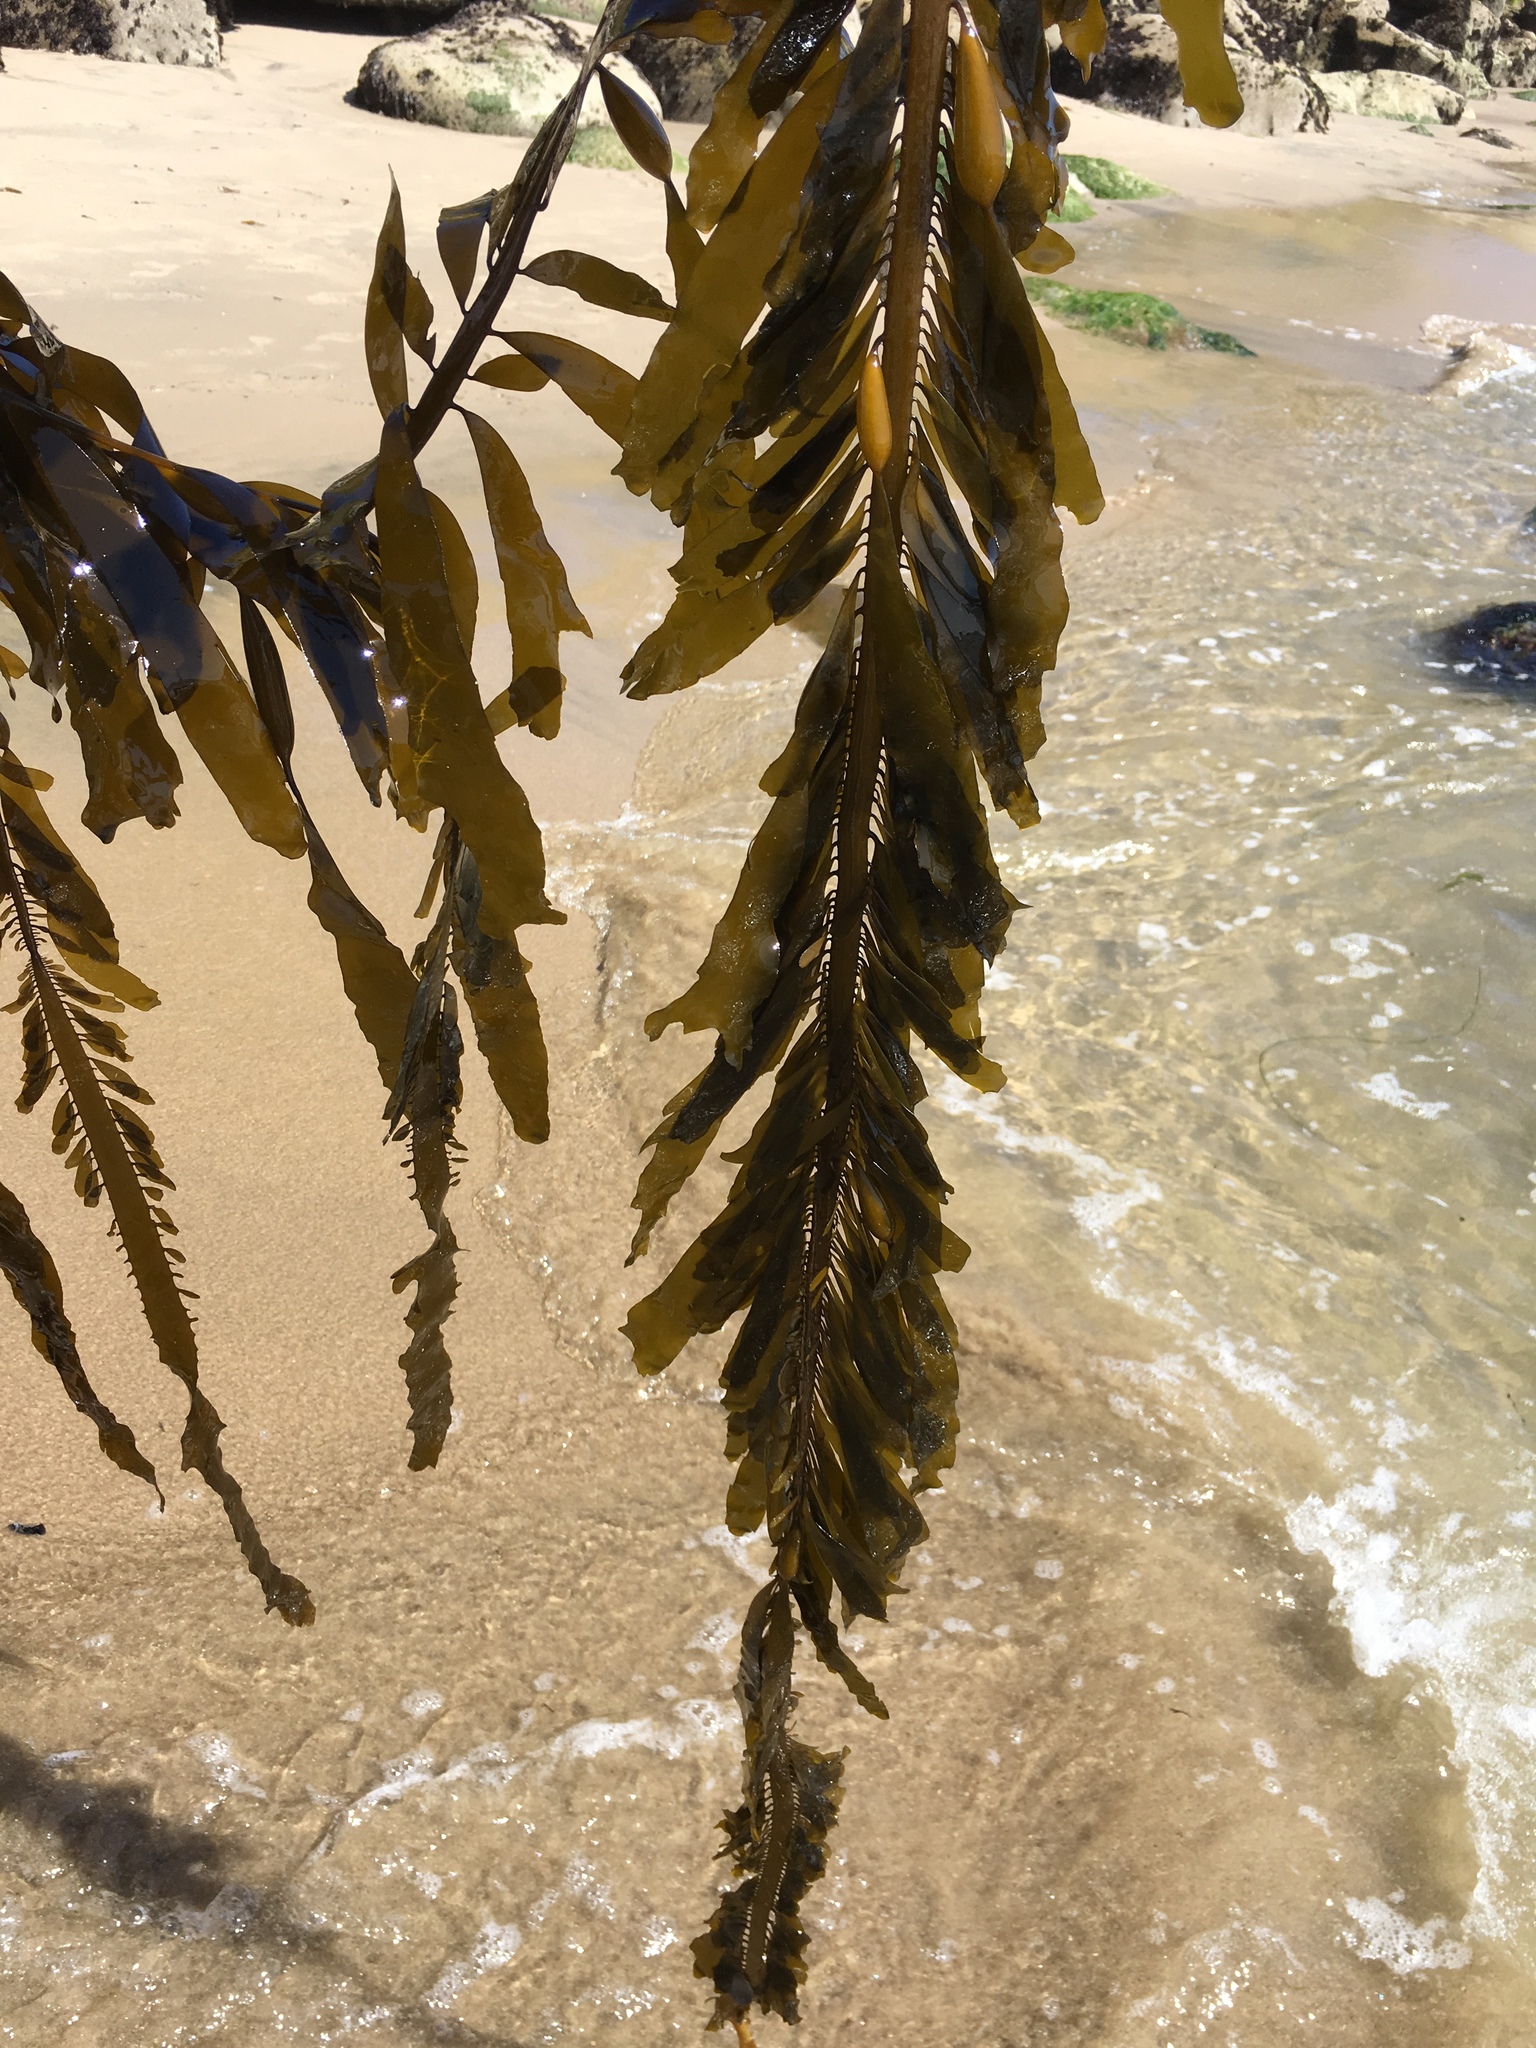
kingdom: Chromista
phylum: Ochrophyta
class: Phaeophyceae
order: Laminariales
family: Lessoniaceae
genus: Egregia
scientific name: Egregia menziesii
